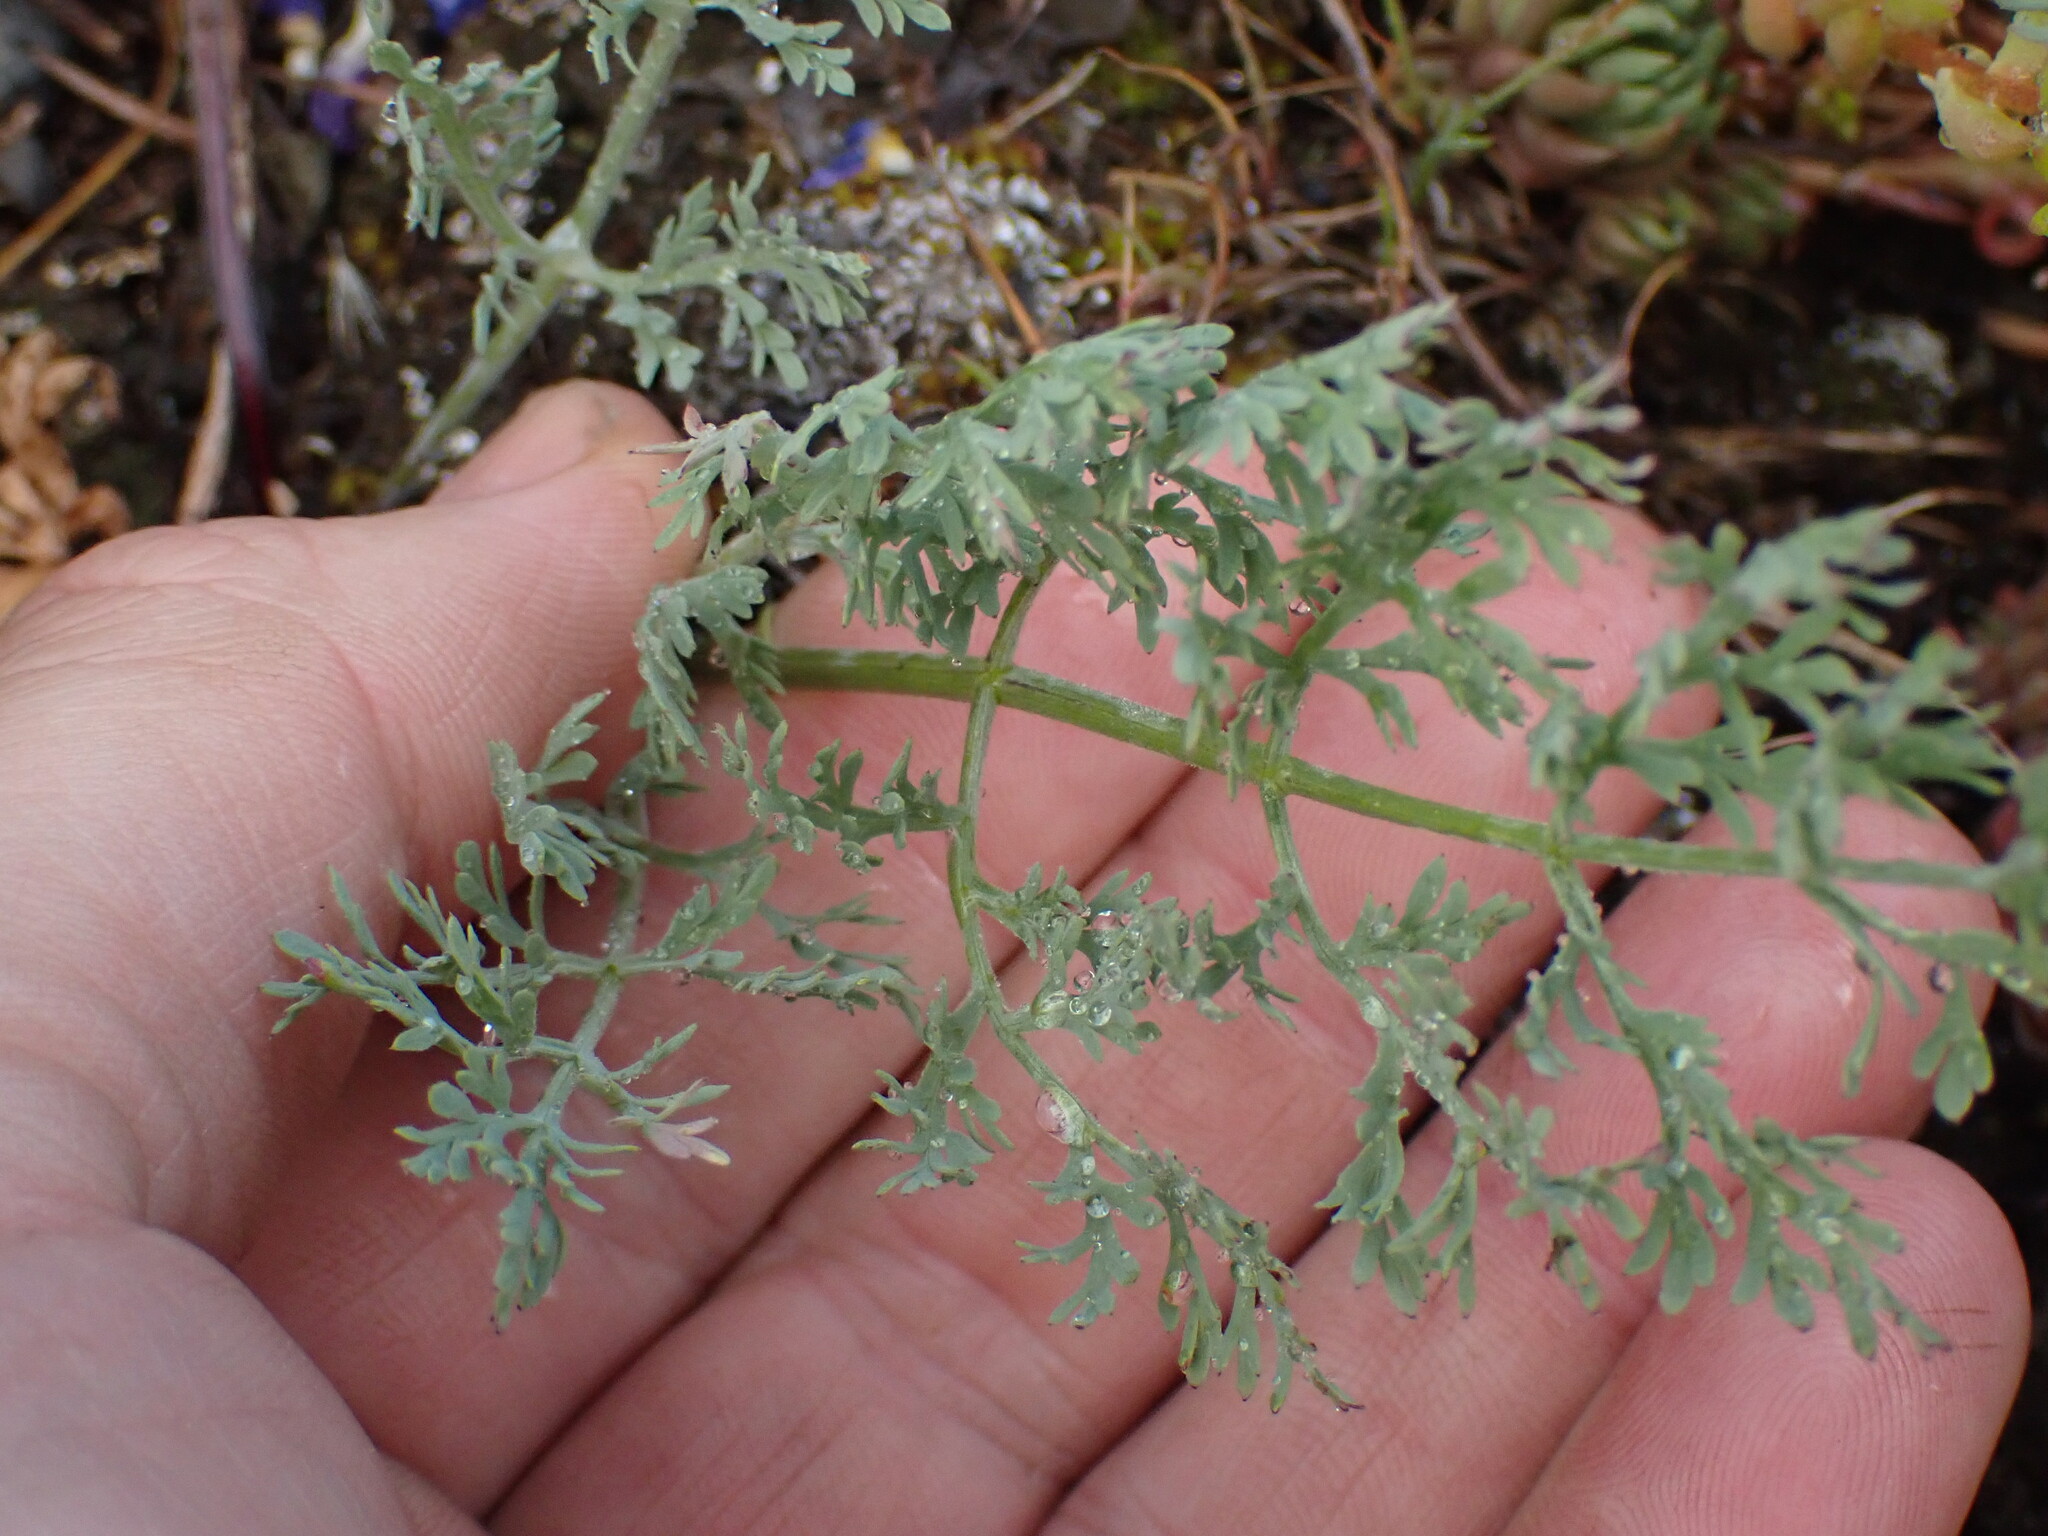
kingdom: Plantae
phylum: Tracheophyta
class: Magnoliopsida
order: Apiales
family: Apiaceae
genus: Lomatium
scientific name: Lomatium macrocarpum
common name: Big-seed biscuitroot
